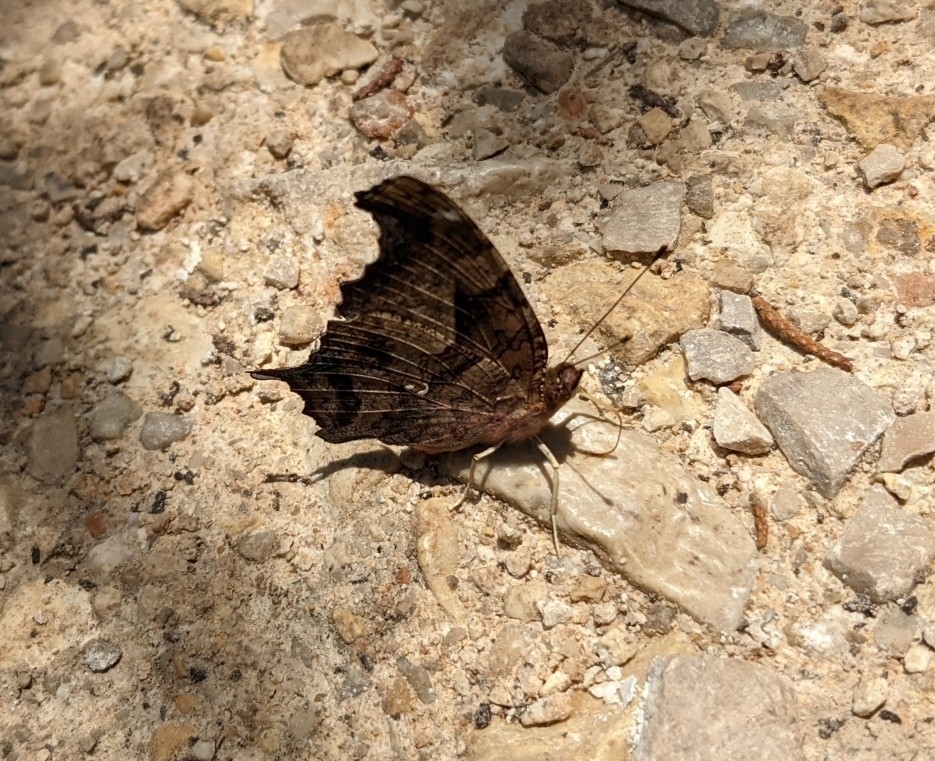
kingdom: Animalia
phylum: Arthropoda
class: Insecta
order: Lepidoptera
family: Nymphalidae
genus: Polygonia
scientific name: Polygonia interrogationis
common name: Question mark
